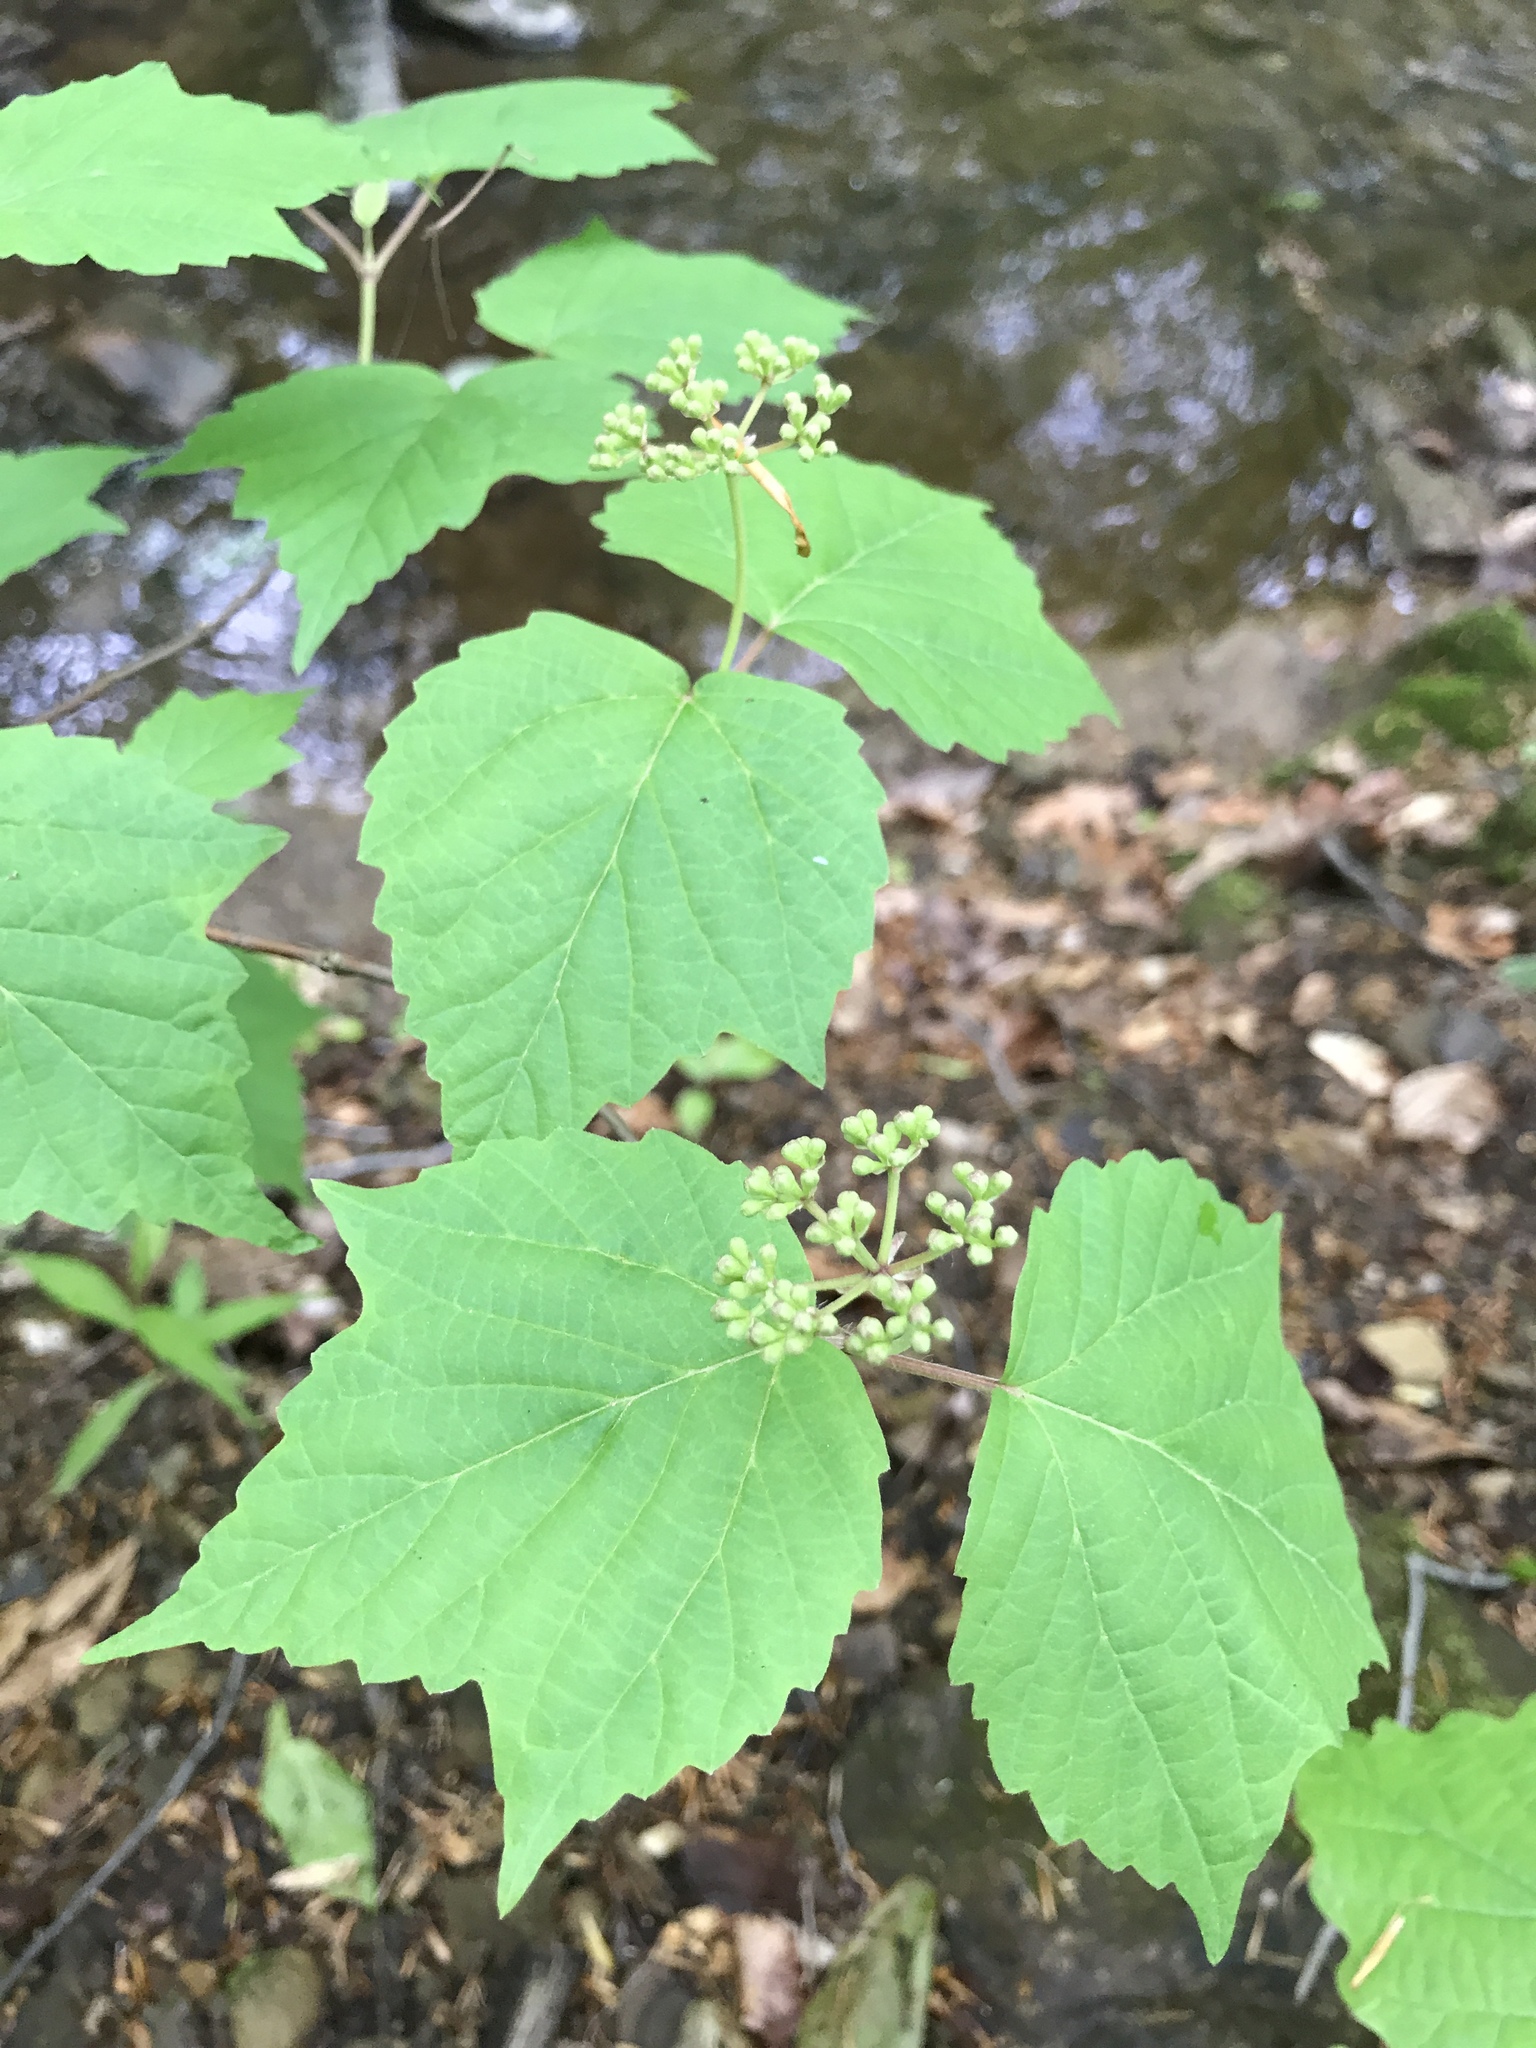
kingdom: Plantae
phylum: Tracheophyta
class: Magnoliopsida
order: Dipsacales
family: Viburnaceae
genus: Viburnum
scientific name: Viburnum acerifolium
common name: Dockmackie
